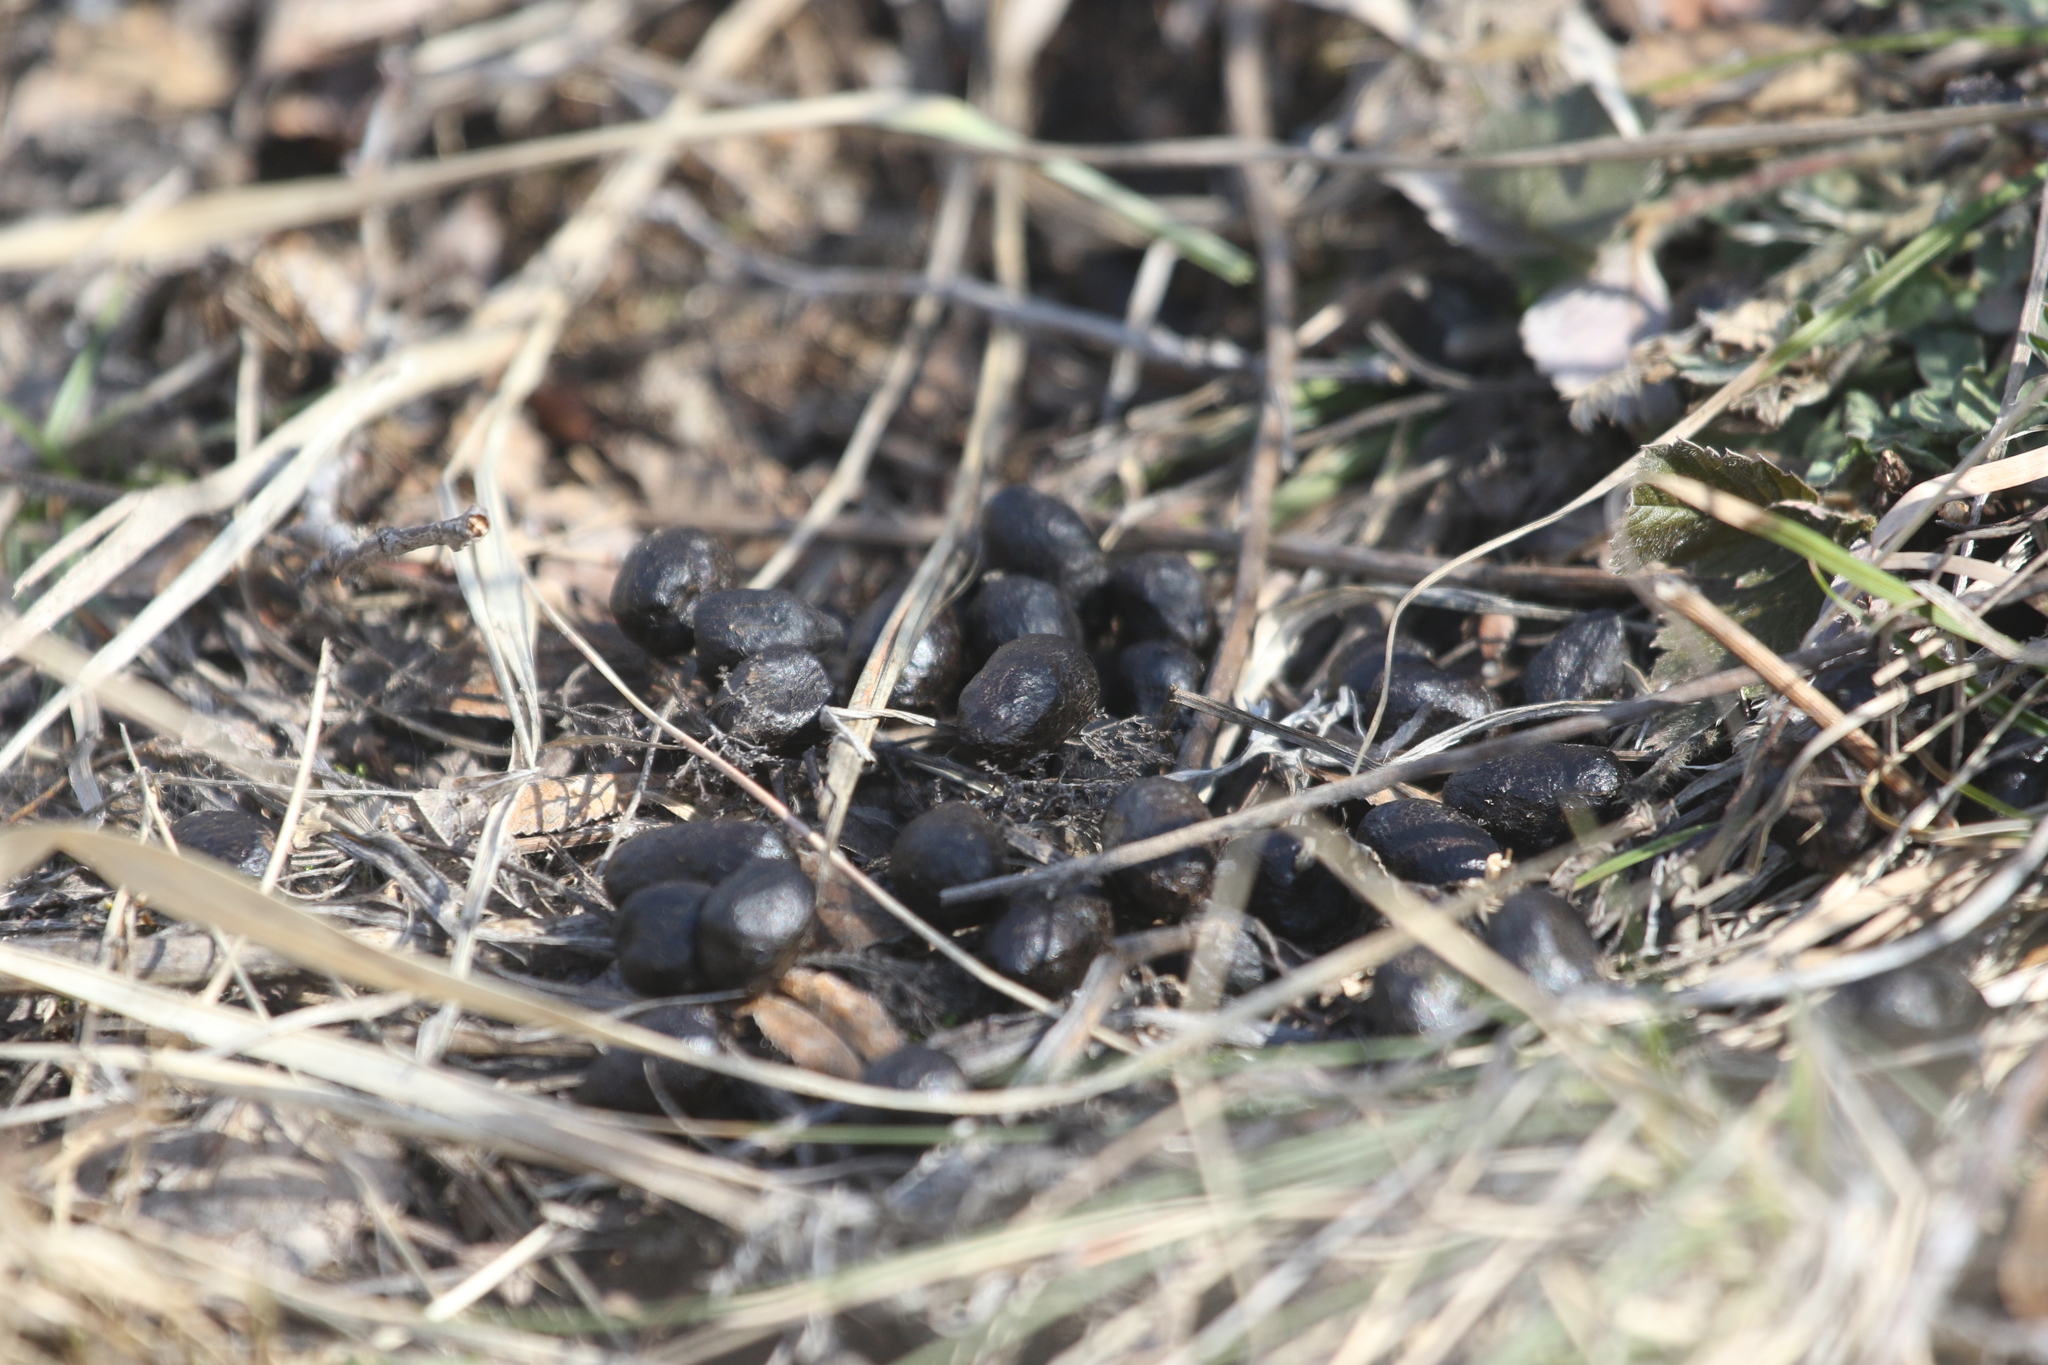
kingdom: Animalia
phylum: Chordata
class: Mammalia
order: Artiodactyla
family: Cervidae
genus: Capreolus
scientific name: Capreolus pygargus
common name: Siberian roe
